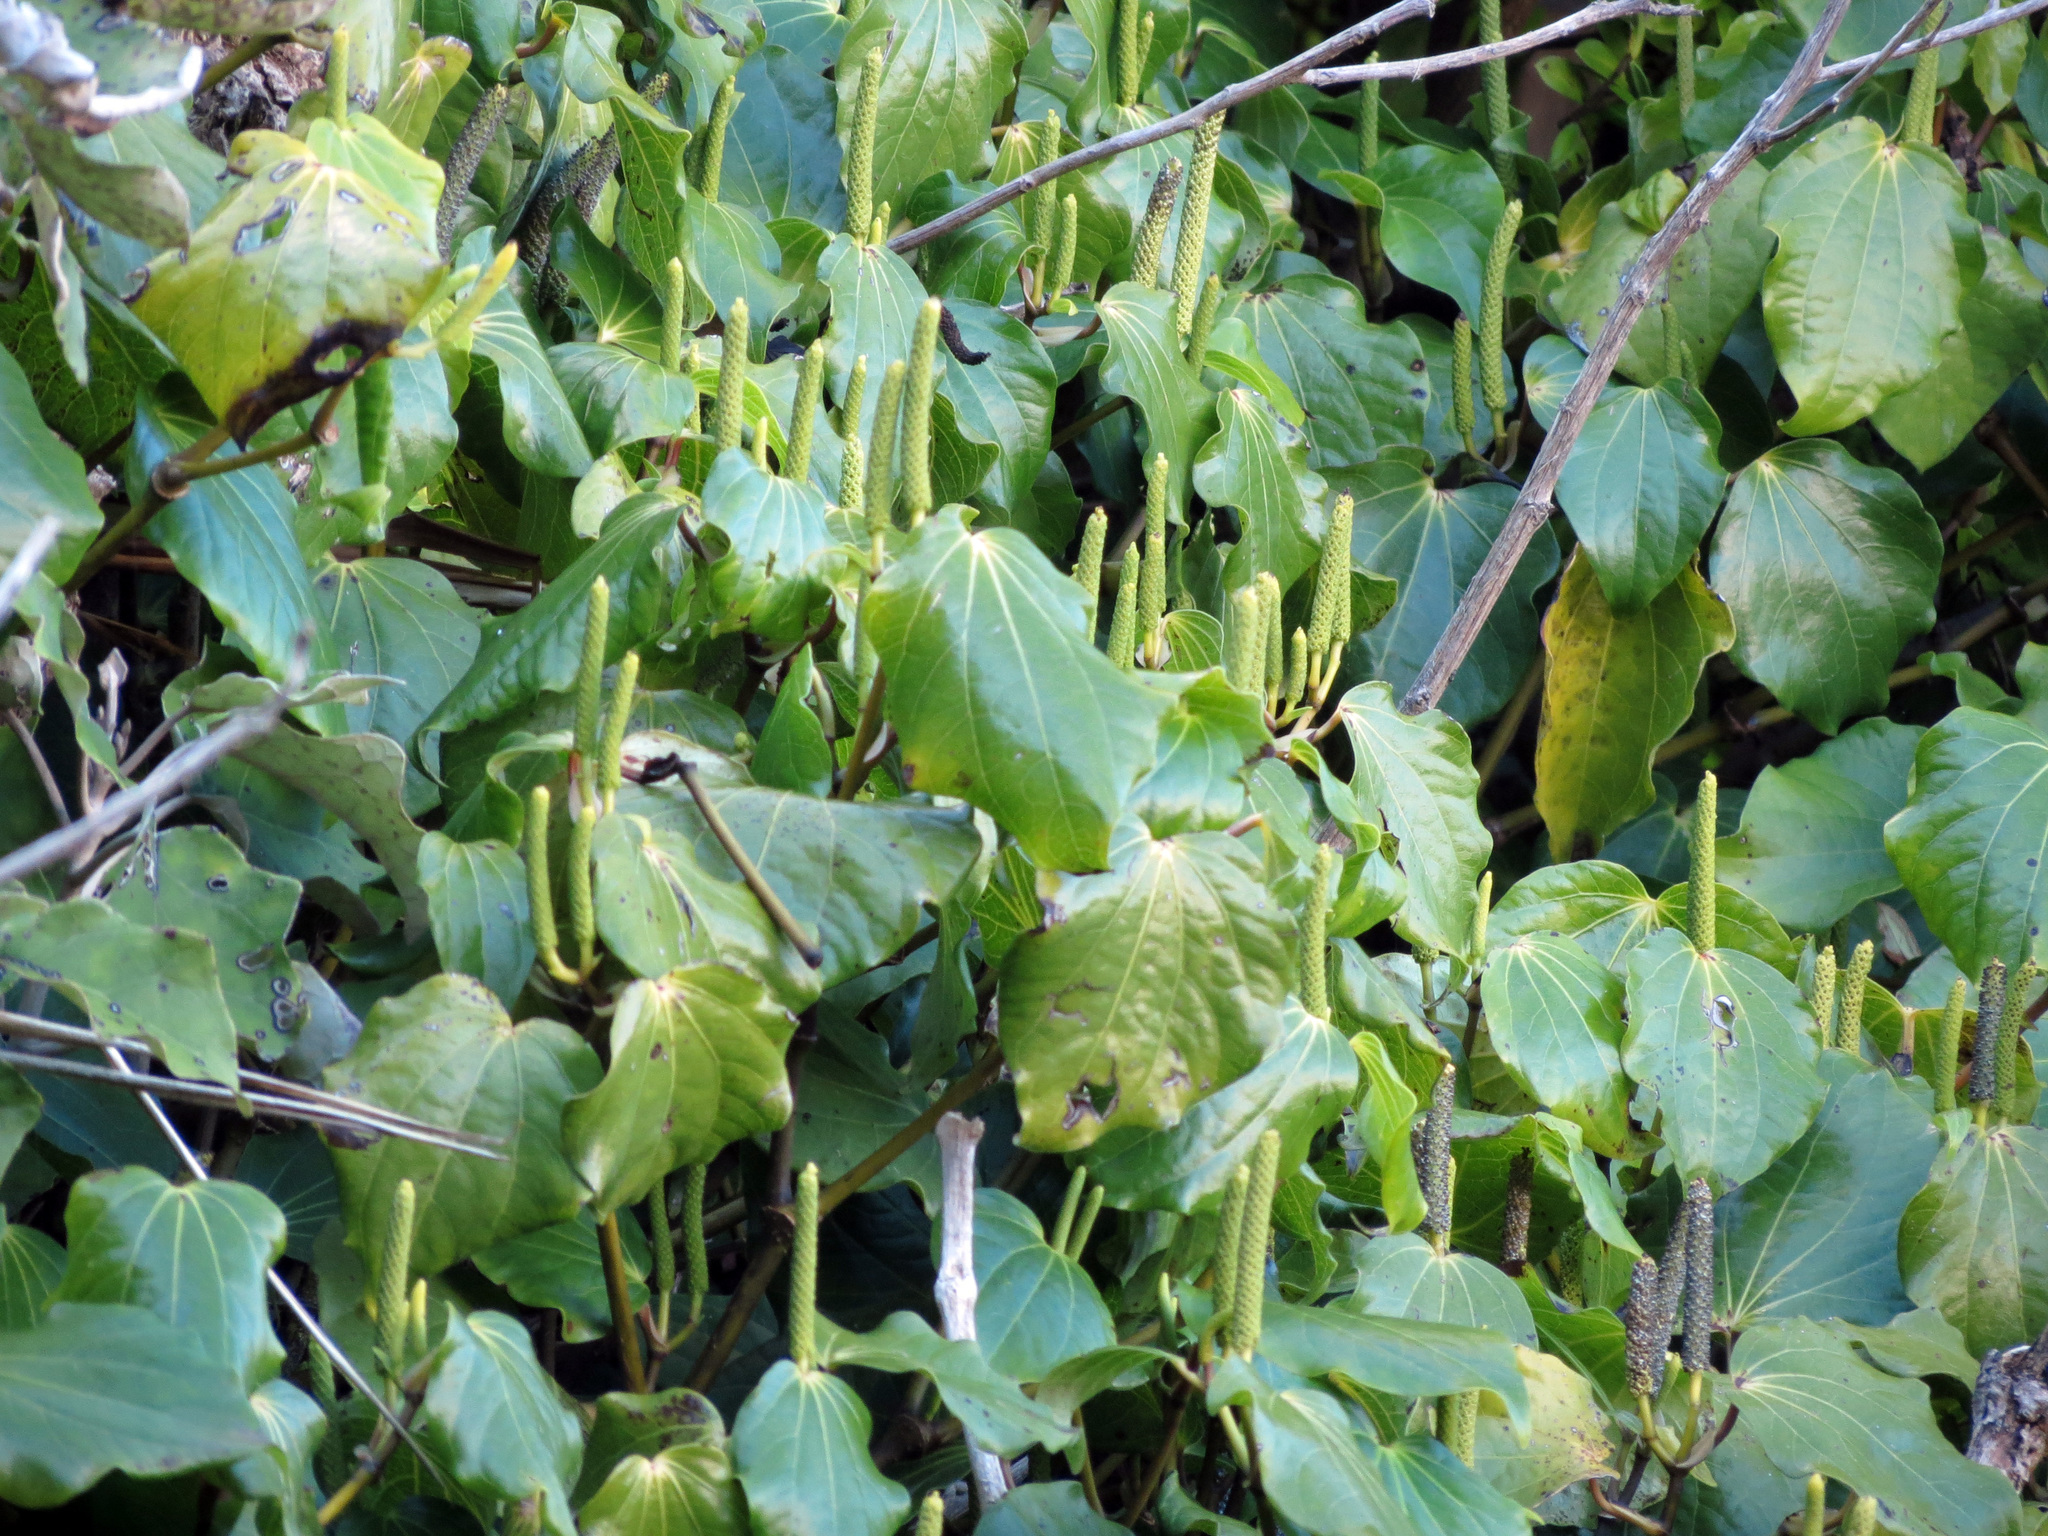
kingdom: Plantae
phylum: Tracheophyta
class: Magnoliopsida
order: Piperales
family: Piperaceae
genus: Macropiper
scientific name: Macropiper excelsum
